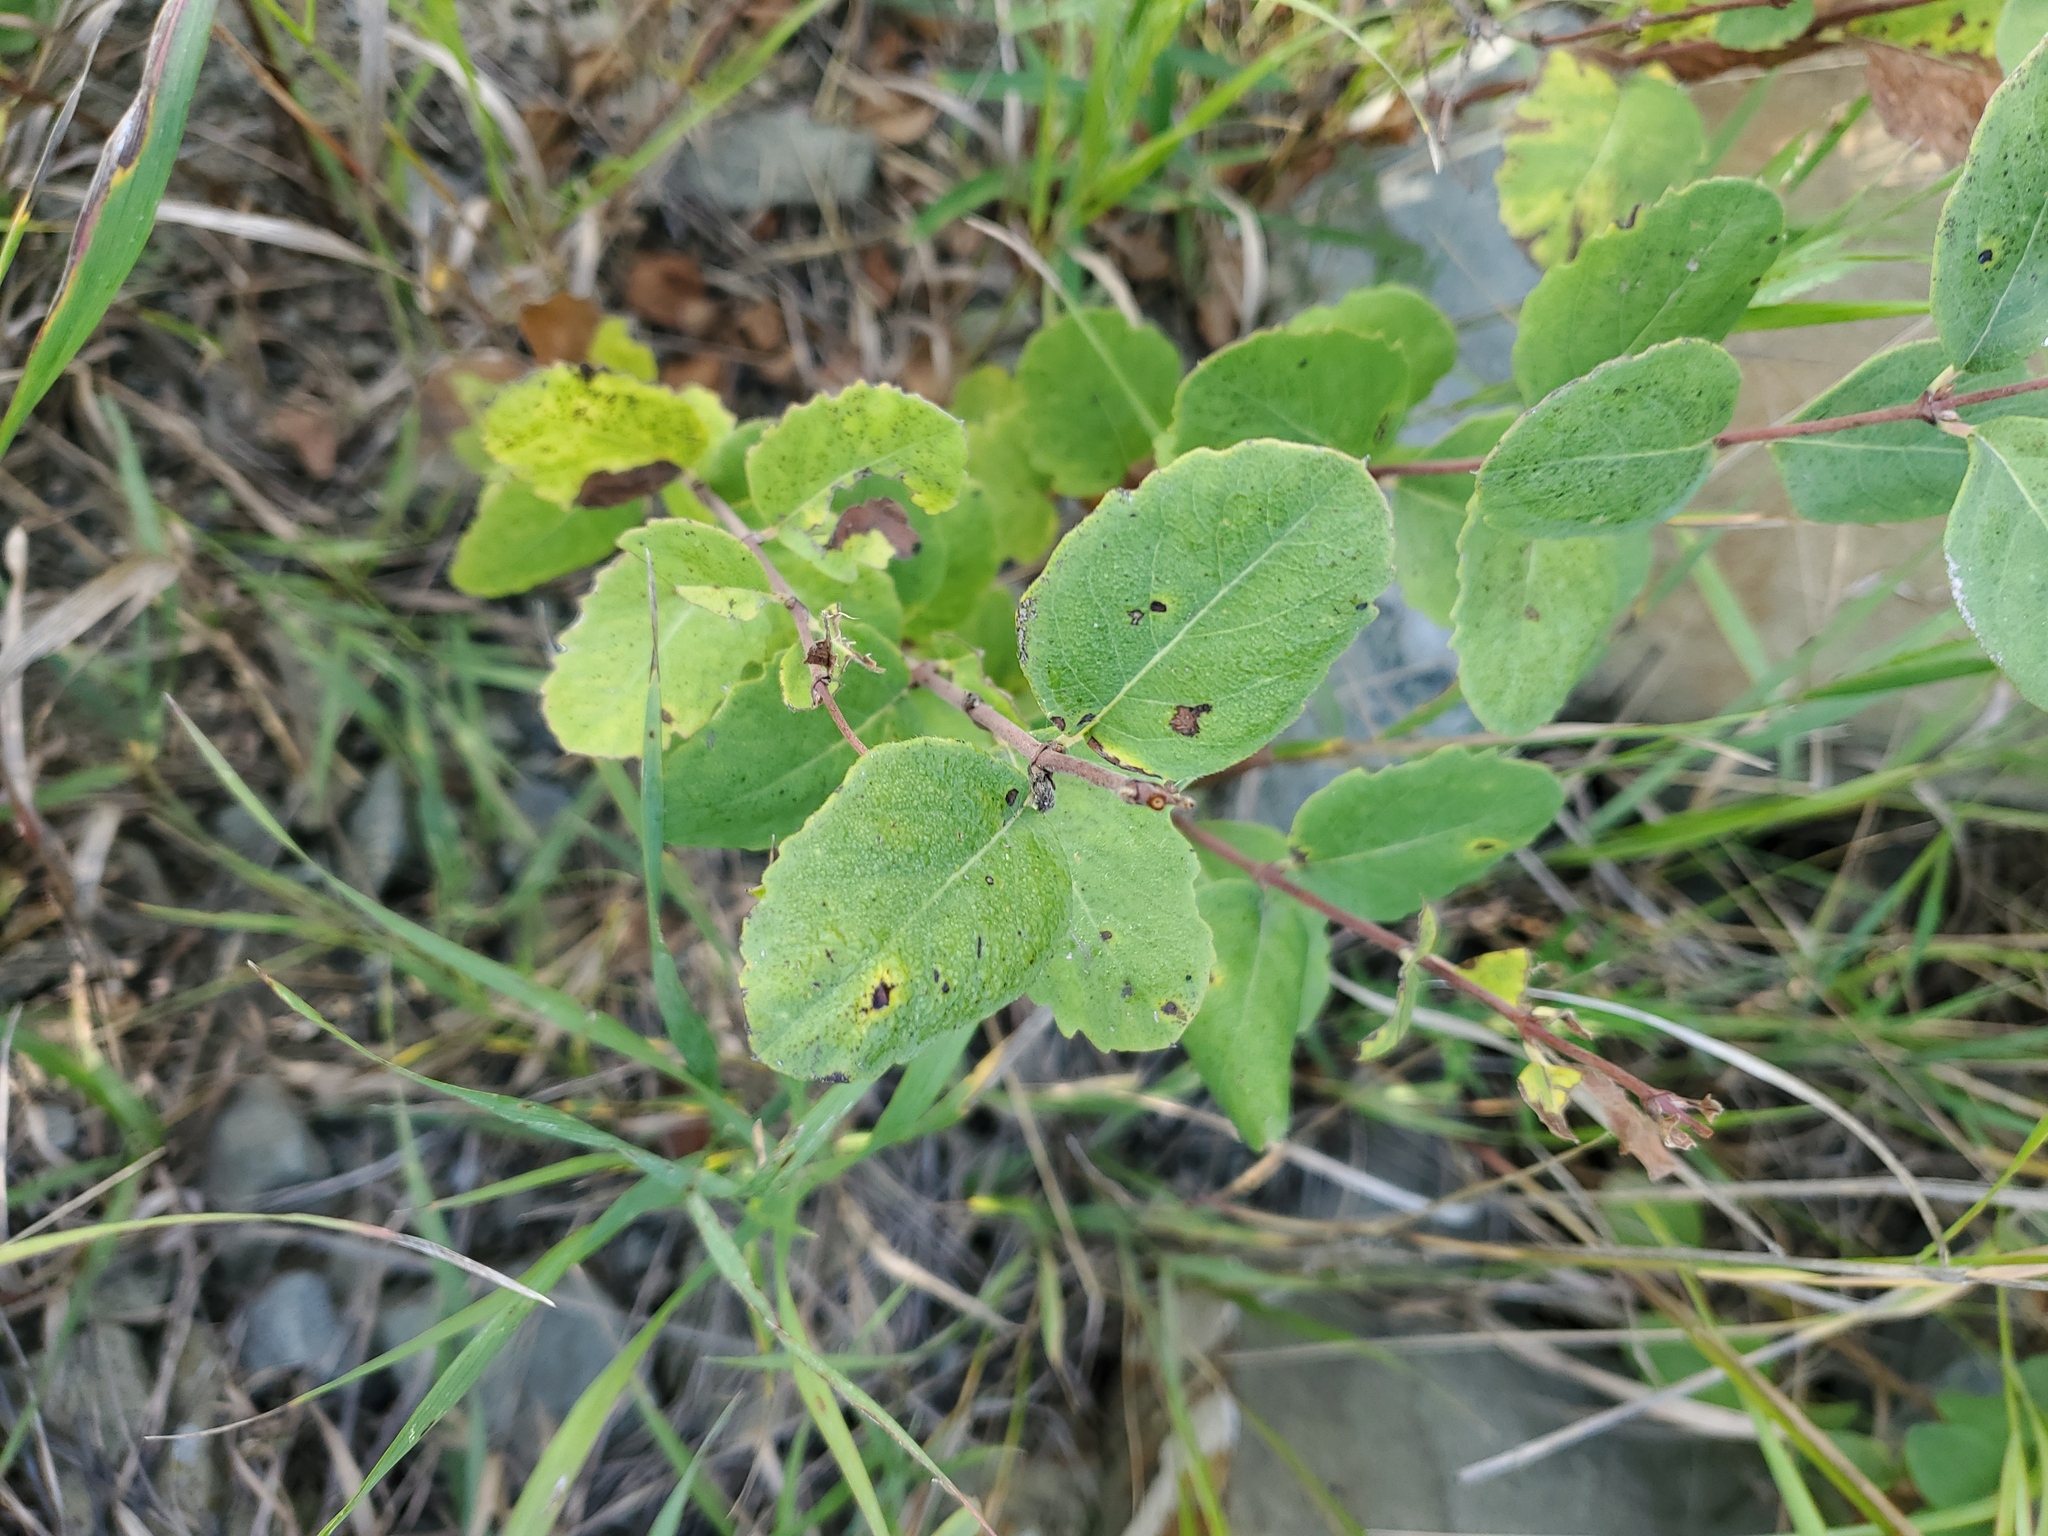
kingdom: Plantae
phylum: Tracheophyta
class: Magnoliopsida
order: Dipsacales
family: Caprifoliaceae
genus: Symphoricarpos
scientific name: Symphoricarpos occidentalis
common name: Wolfberry
